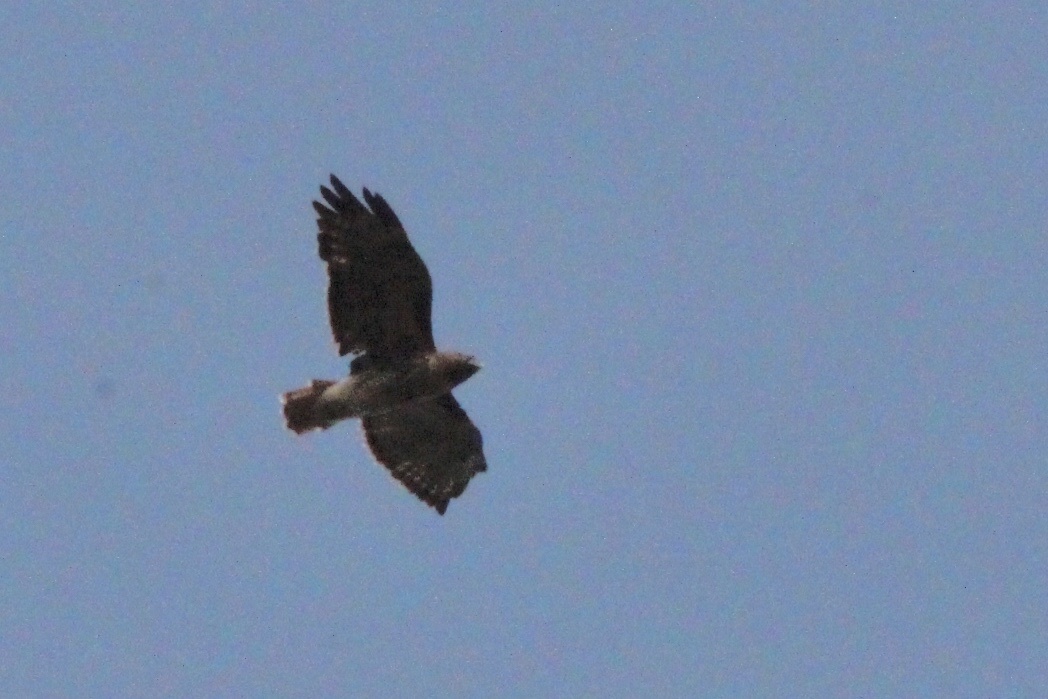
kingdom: Animalia
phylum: Chordata
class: Aves
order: Accipitriformes
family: Accipitridae
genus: Buteo
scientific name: Buteo jamaicensis
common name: Red-tailed hawk
